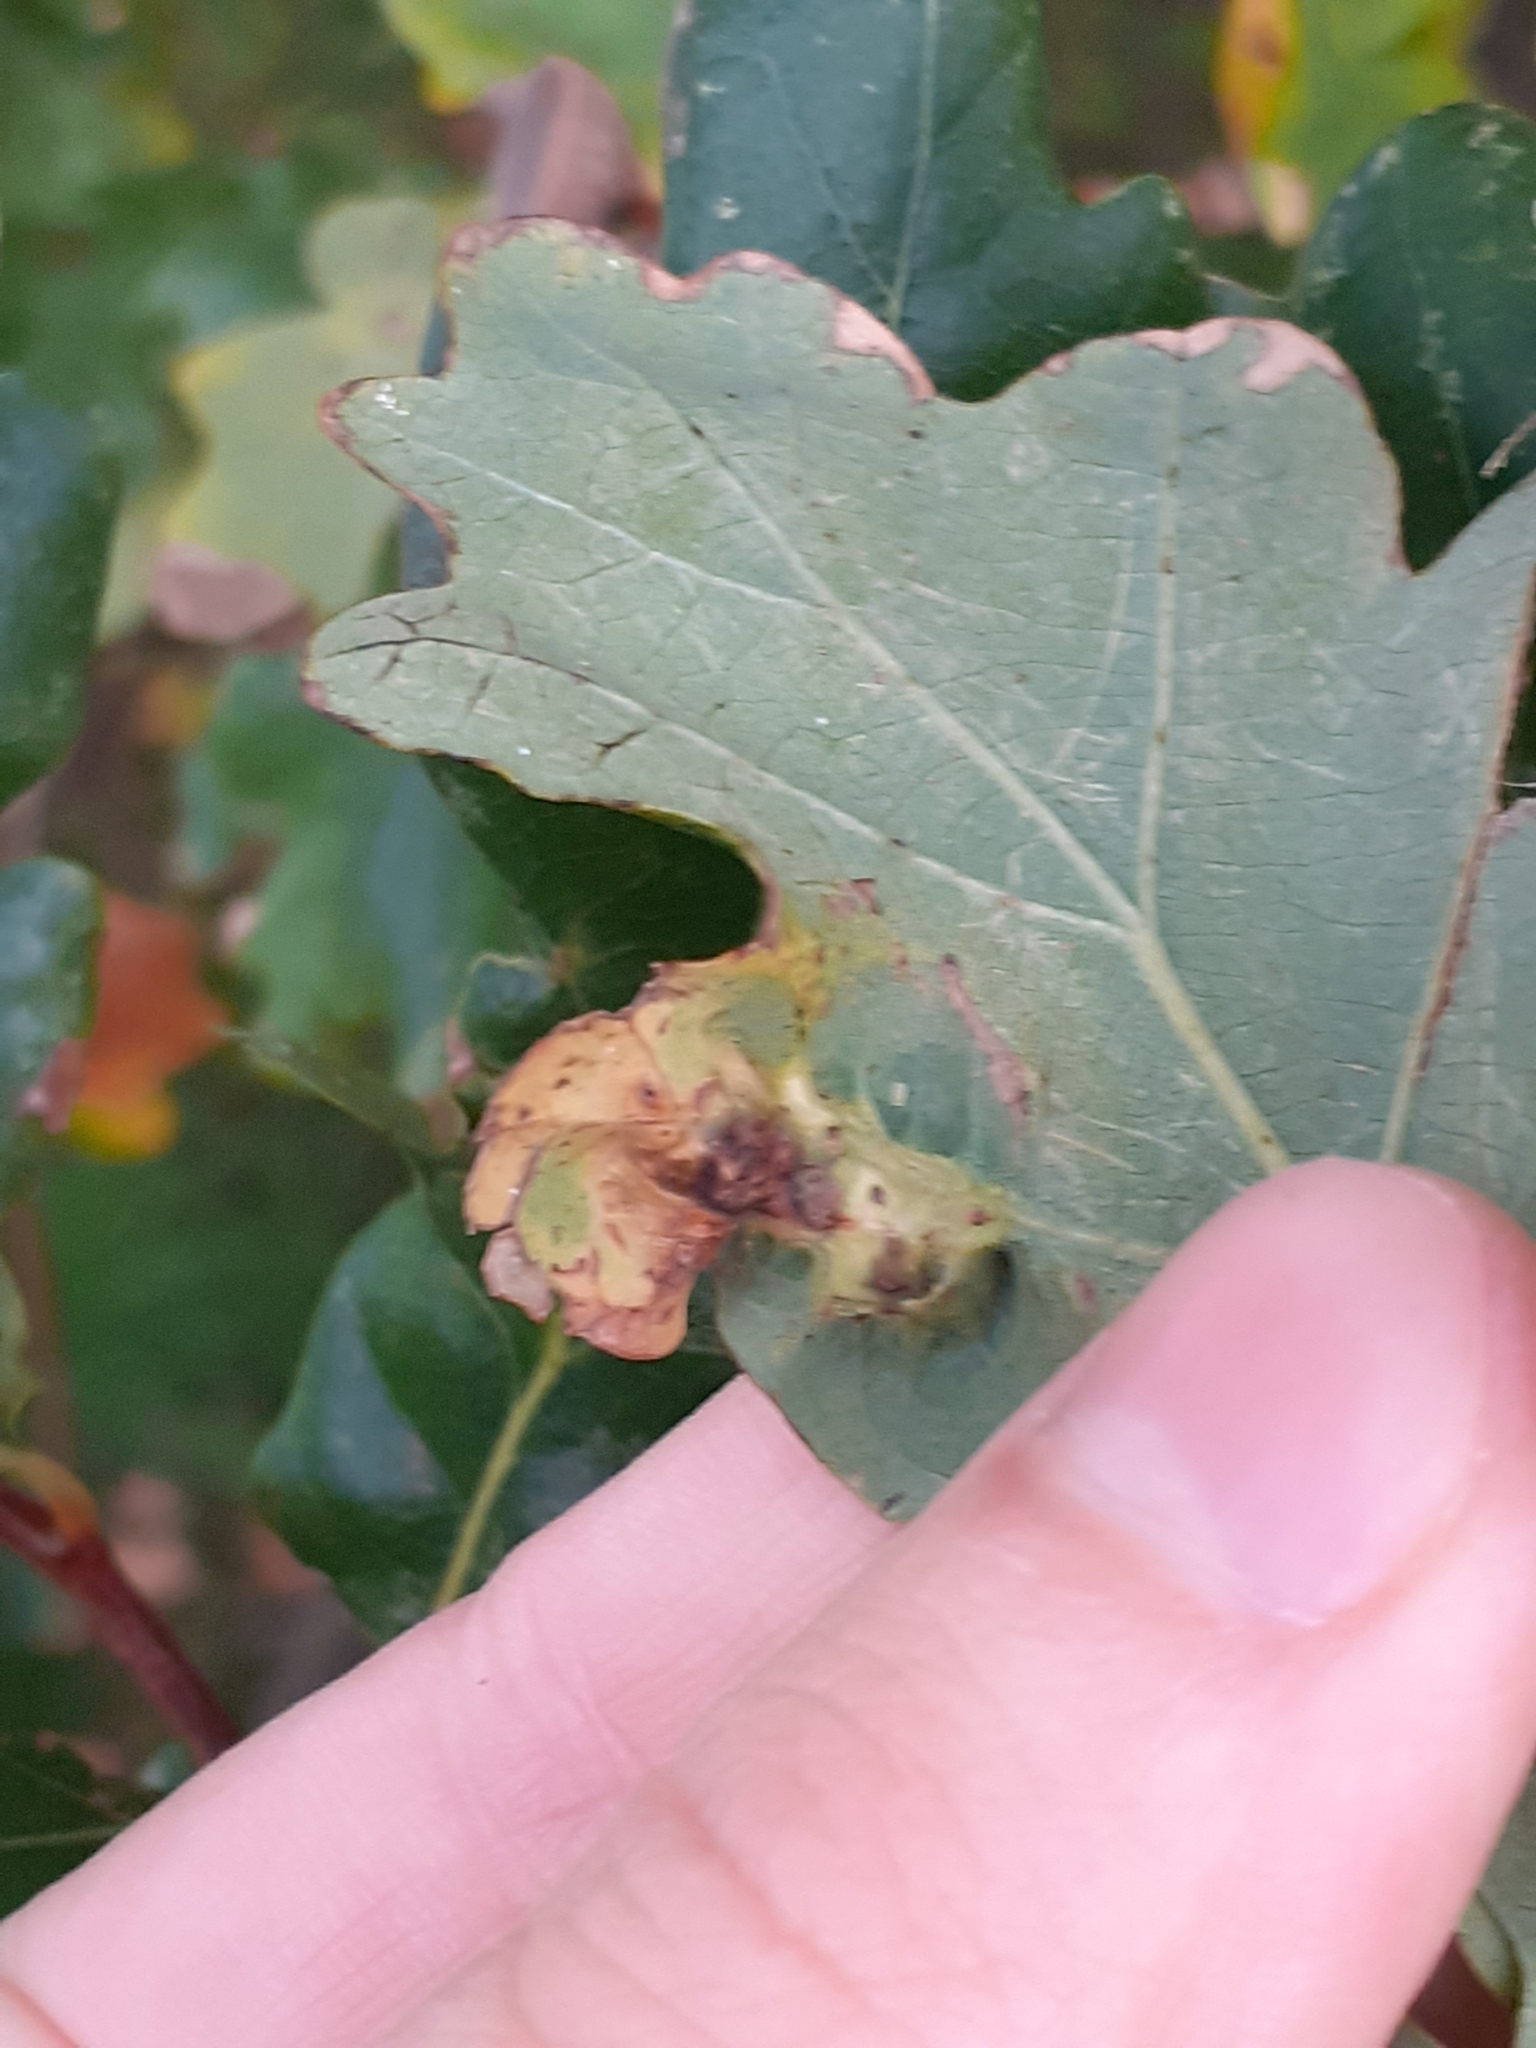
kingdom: Animalia
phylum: Arthropoda
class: Insecta
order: Hymenoptera
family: Cynipidae
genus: Andricus
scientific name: Andricus curvator
